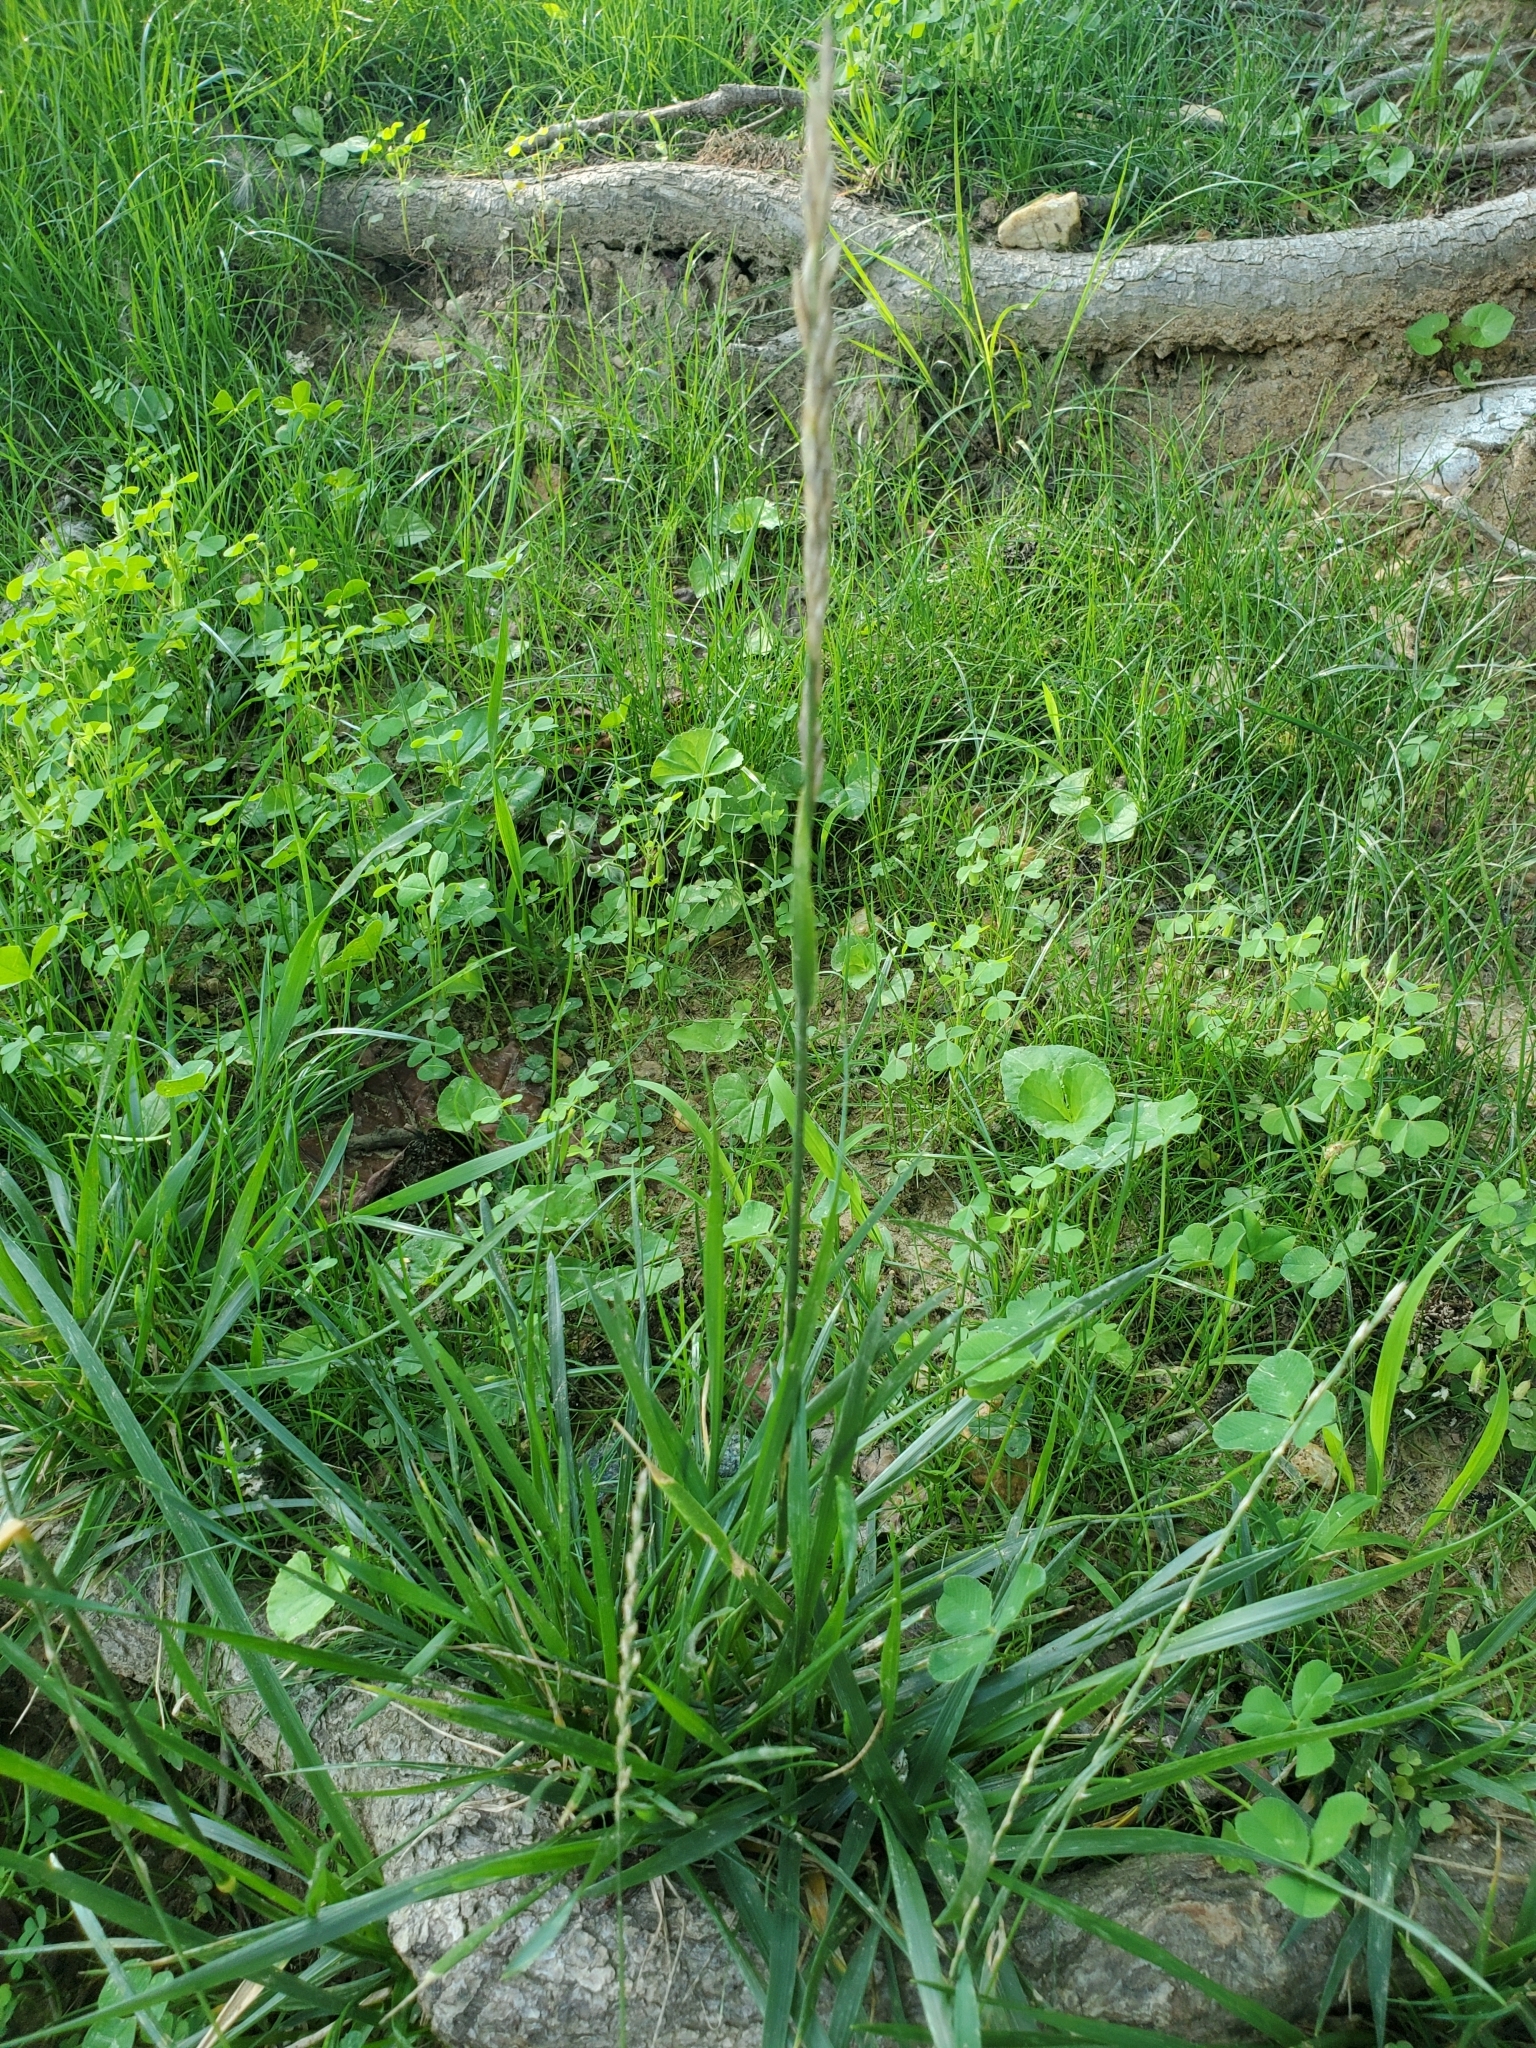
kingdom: Plantae
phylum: Tracheophyta
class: Liliopsida
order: Poales
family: Poaceae
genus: Lolium
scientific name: Lolium arundinaceum
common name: Reed fescue
